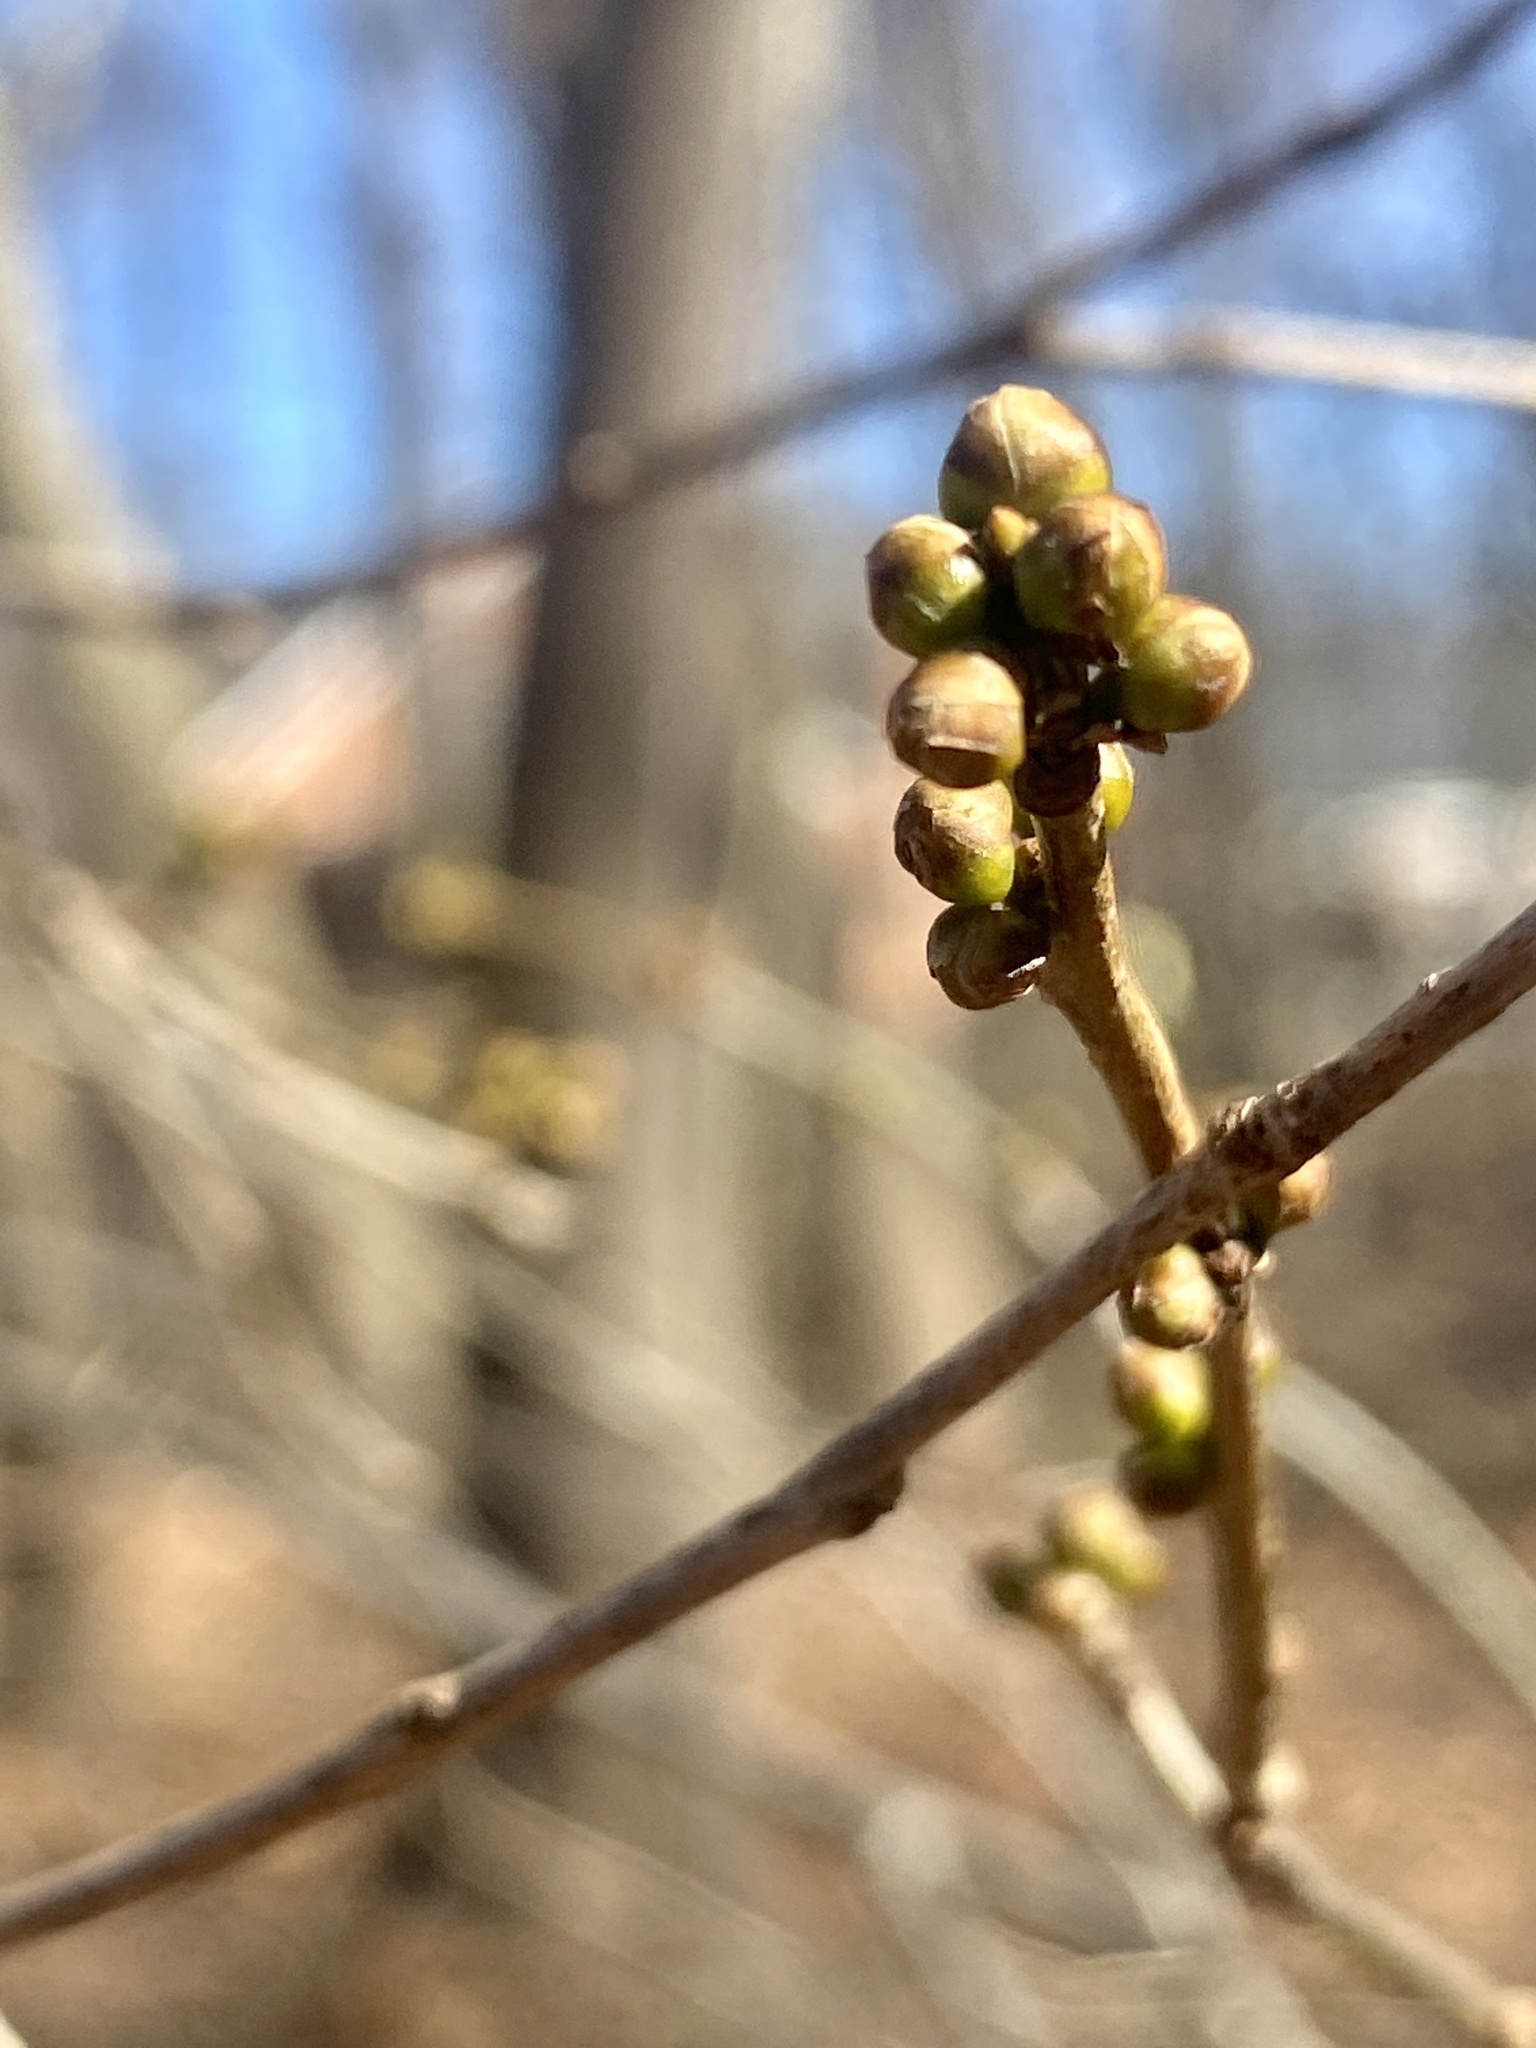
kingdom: Plantae
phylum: Tracheophyta
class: Magnoliopsida
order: Laurales
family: Lauraceae
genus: Lindera
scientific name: Lindera benzoin
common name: Spicebush
